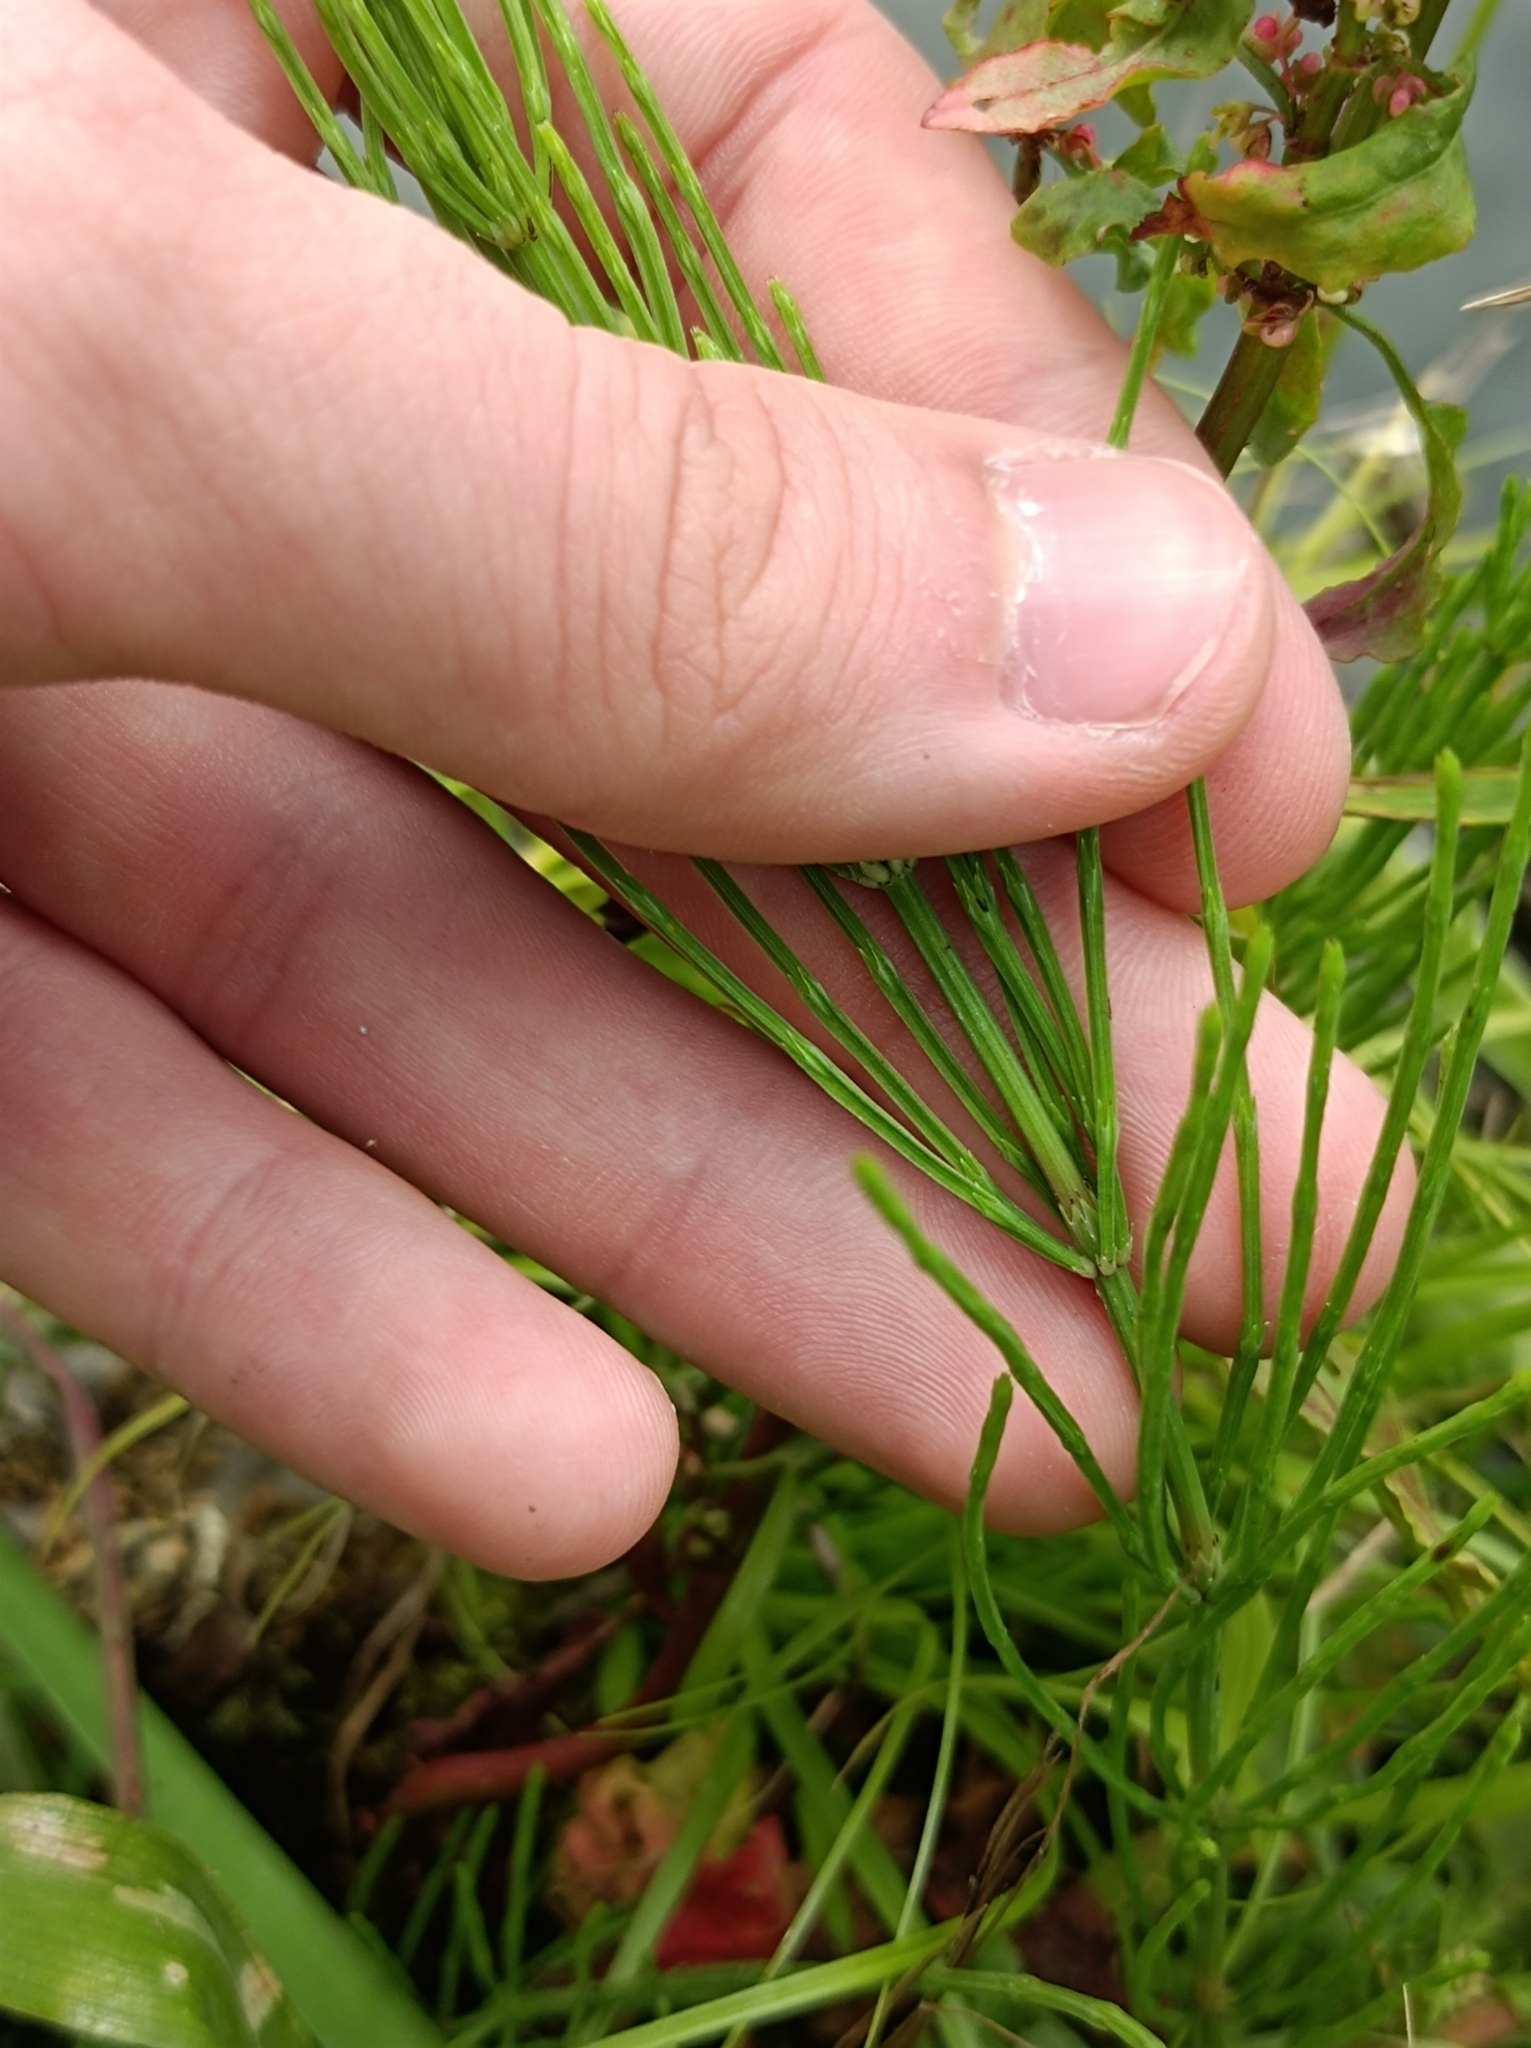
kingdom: Plantae
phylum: Tracheophyta
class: Polypodiopsida
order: Equisetales
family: Equisetaceae
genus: Equisetum
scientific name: Equisetum arvense
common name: Field horsetail
